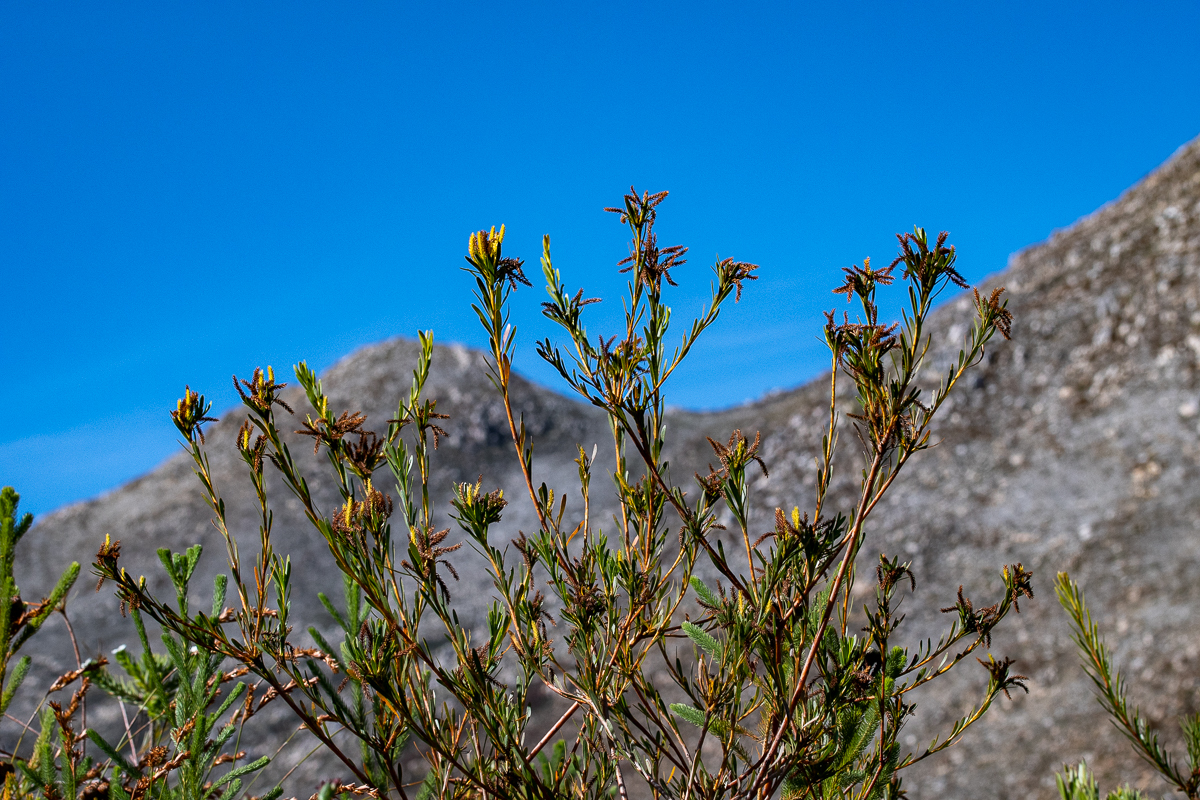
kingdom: Plantae
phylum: Tracheophyta
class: Magnoliopsida
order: Proteales
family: Proteaceae
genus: Aulax
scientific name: Aulax umbellata
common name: Broad-leaf featherbush
